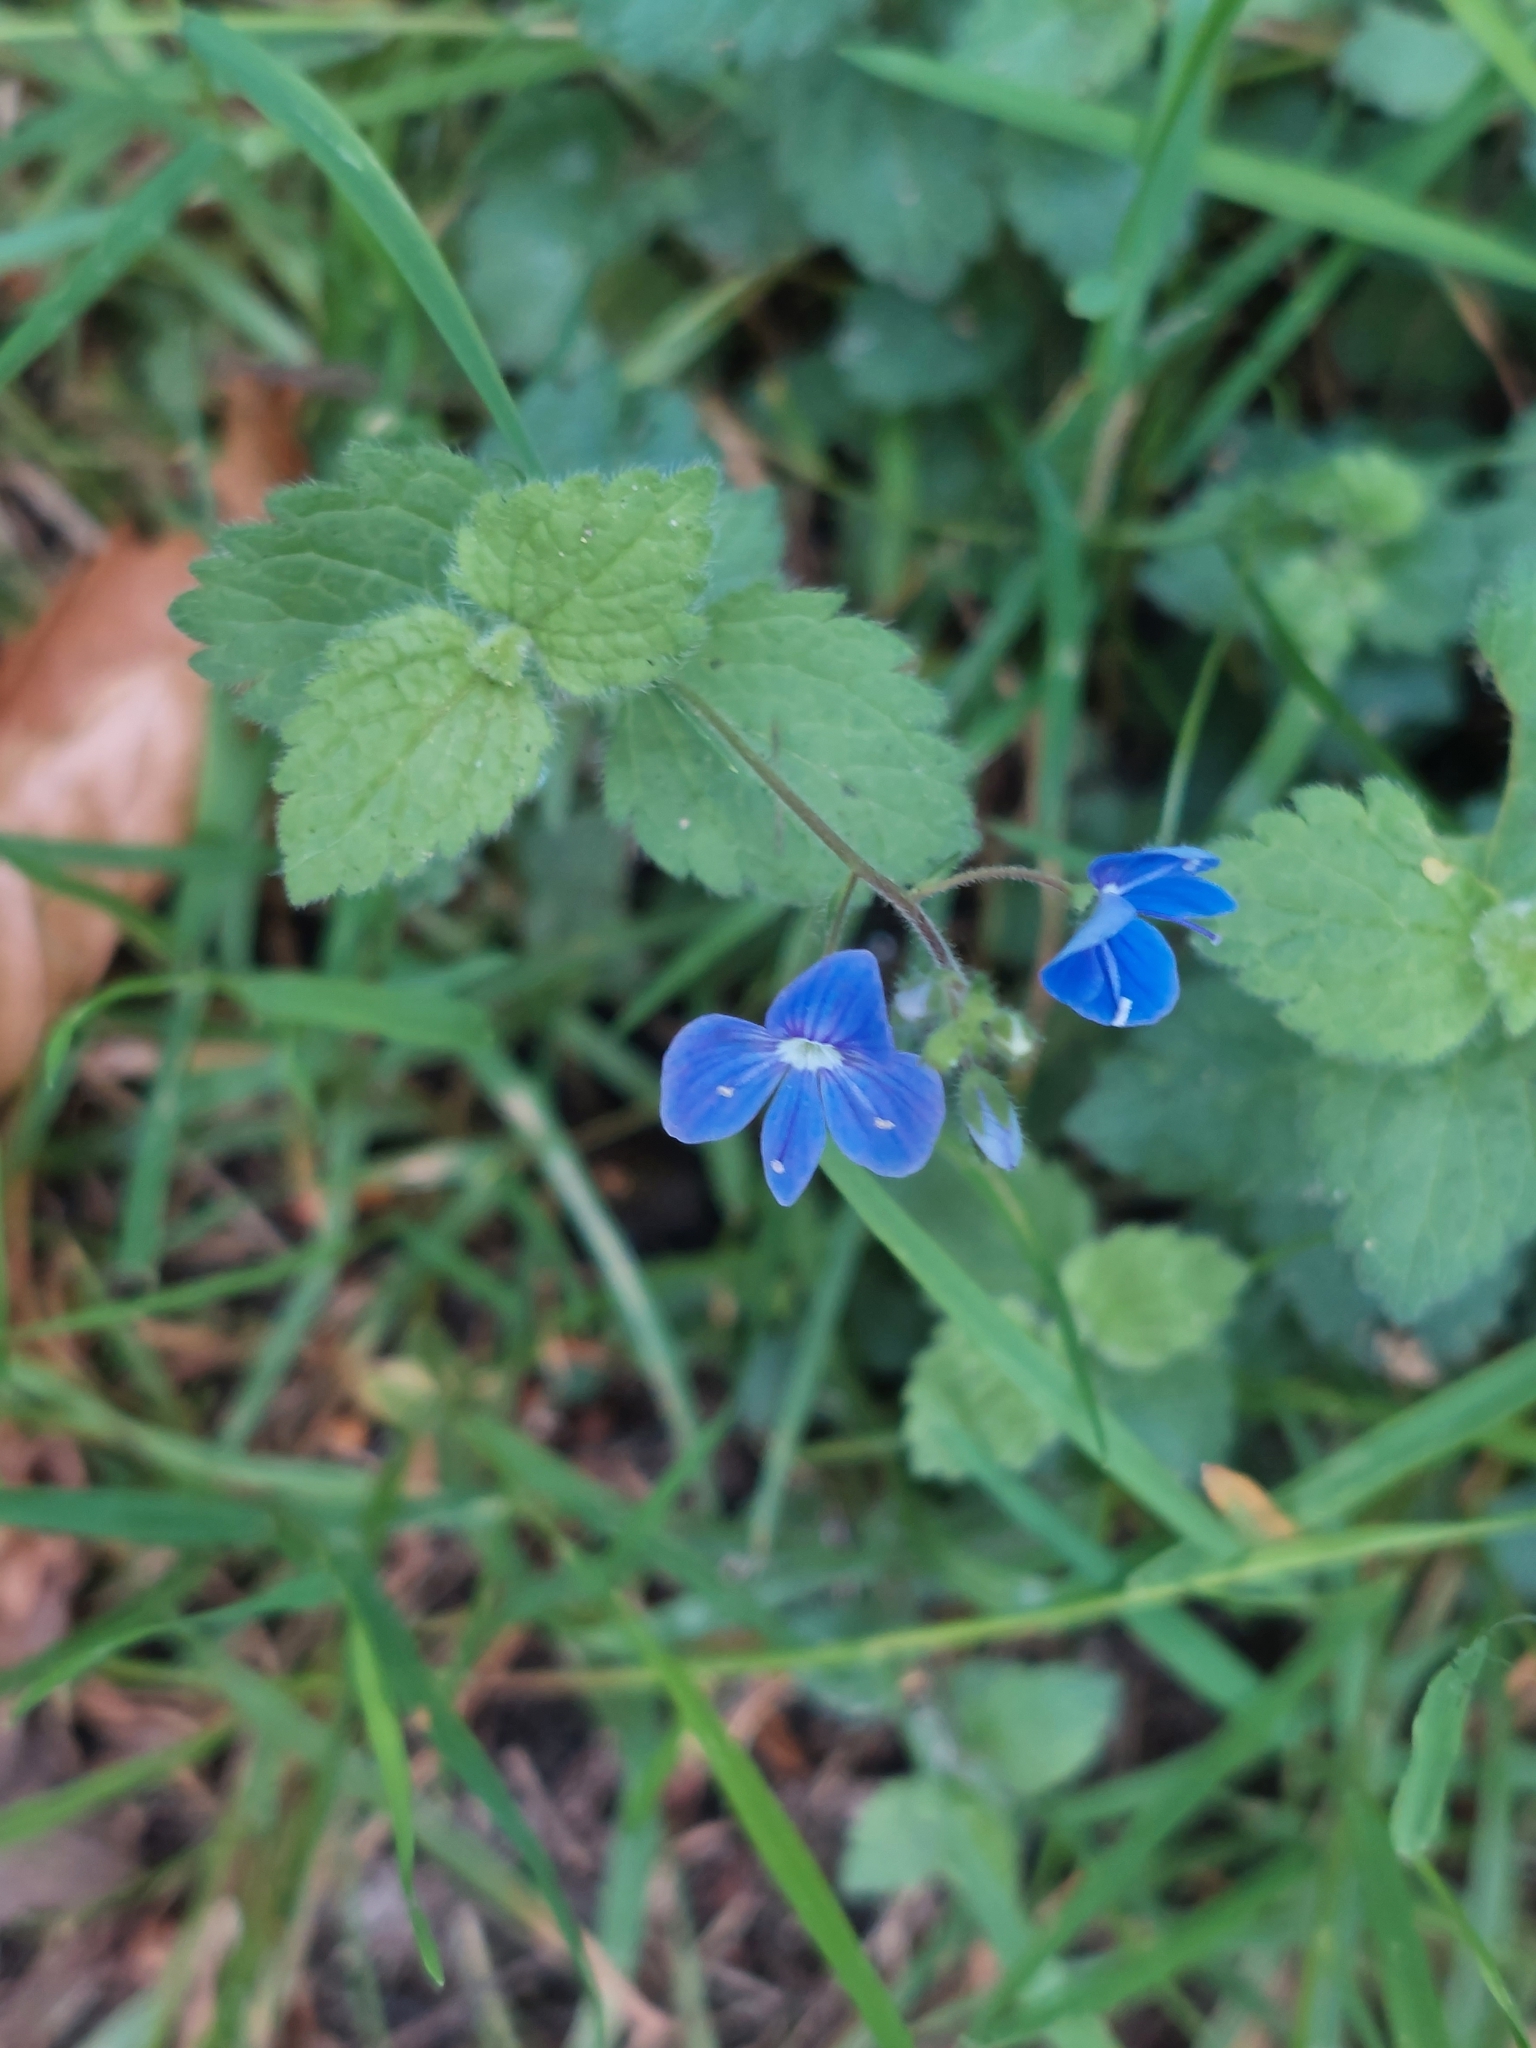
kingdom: Plantae
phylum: Tracheophyta
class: Magnoliopsida
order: Lamiales
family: Plantaginaceae
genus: Veronica
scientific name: Veronica chamaedrys
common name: Germander speedwell
